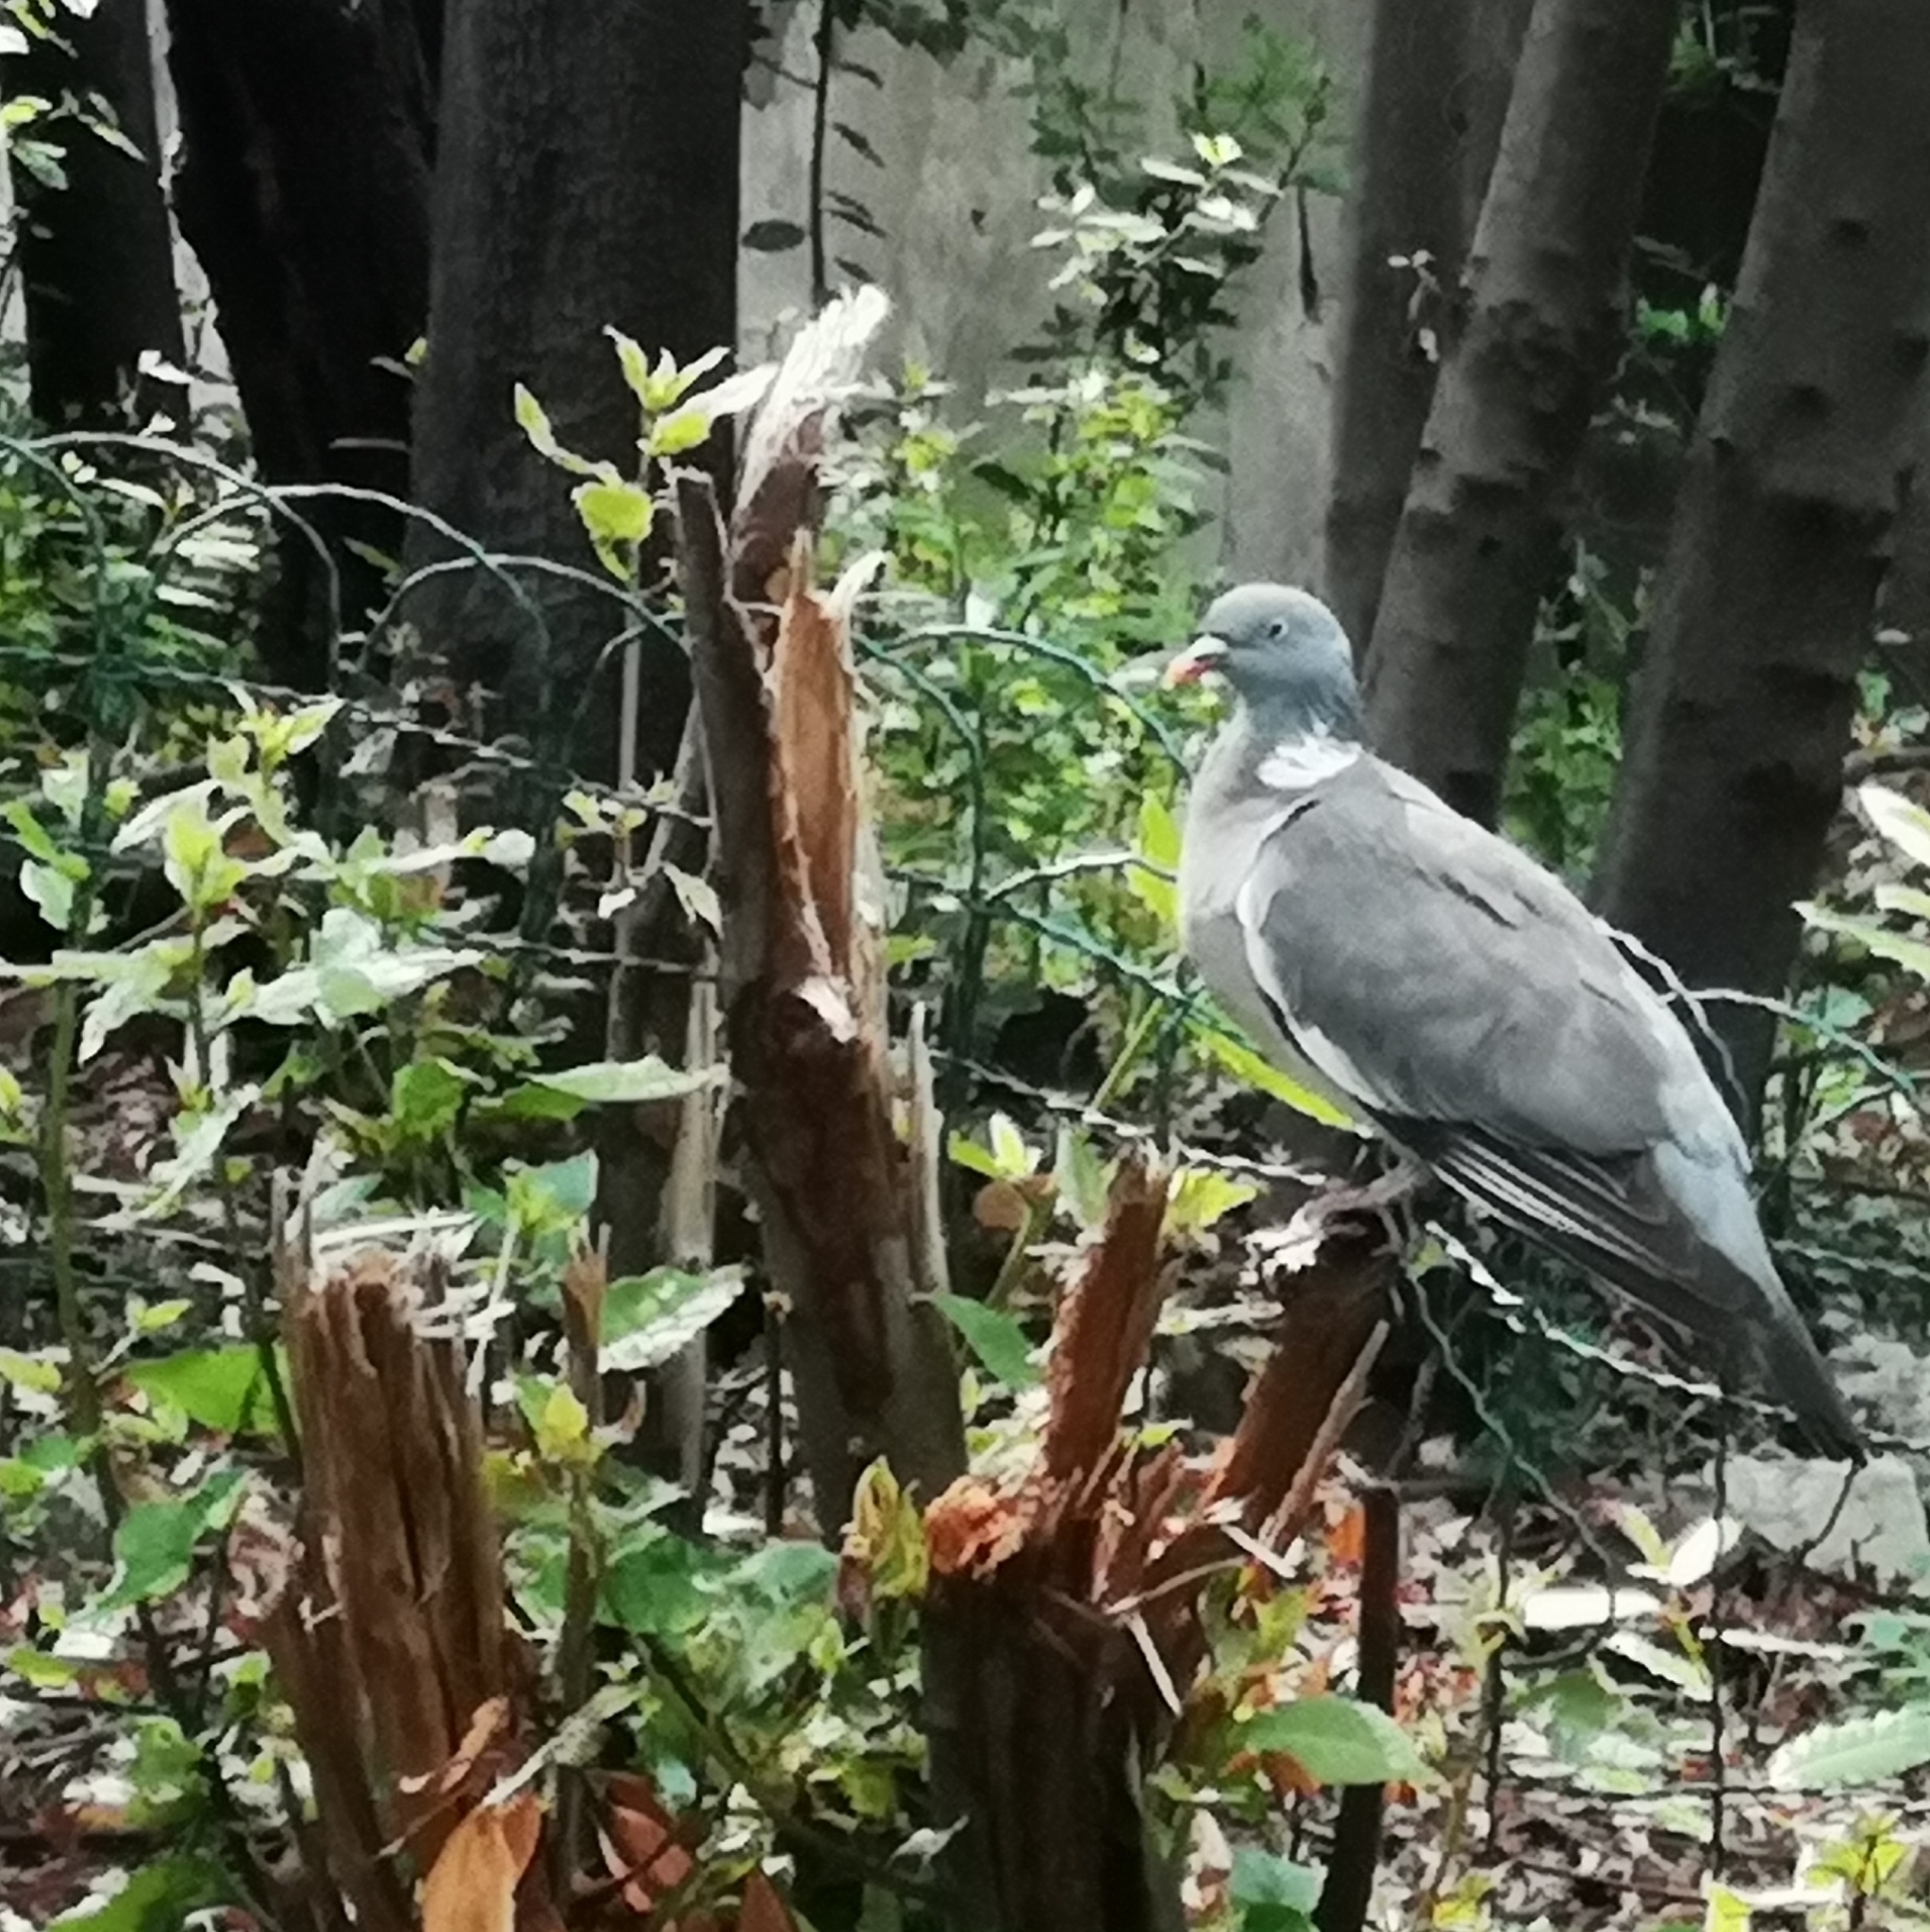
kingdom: Animalia
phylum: Chordata
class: Aves
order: Columbiformes
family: Columbidae
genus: Columba
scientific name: Columba palumbus
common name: Common wood pigeon
